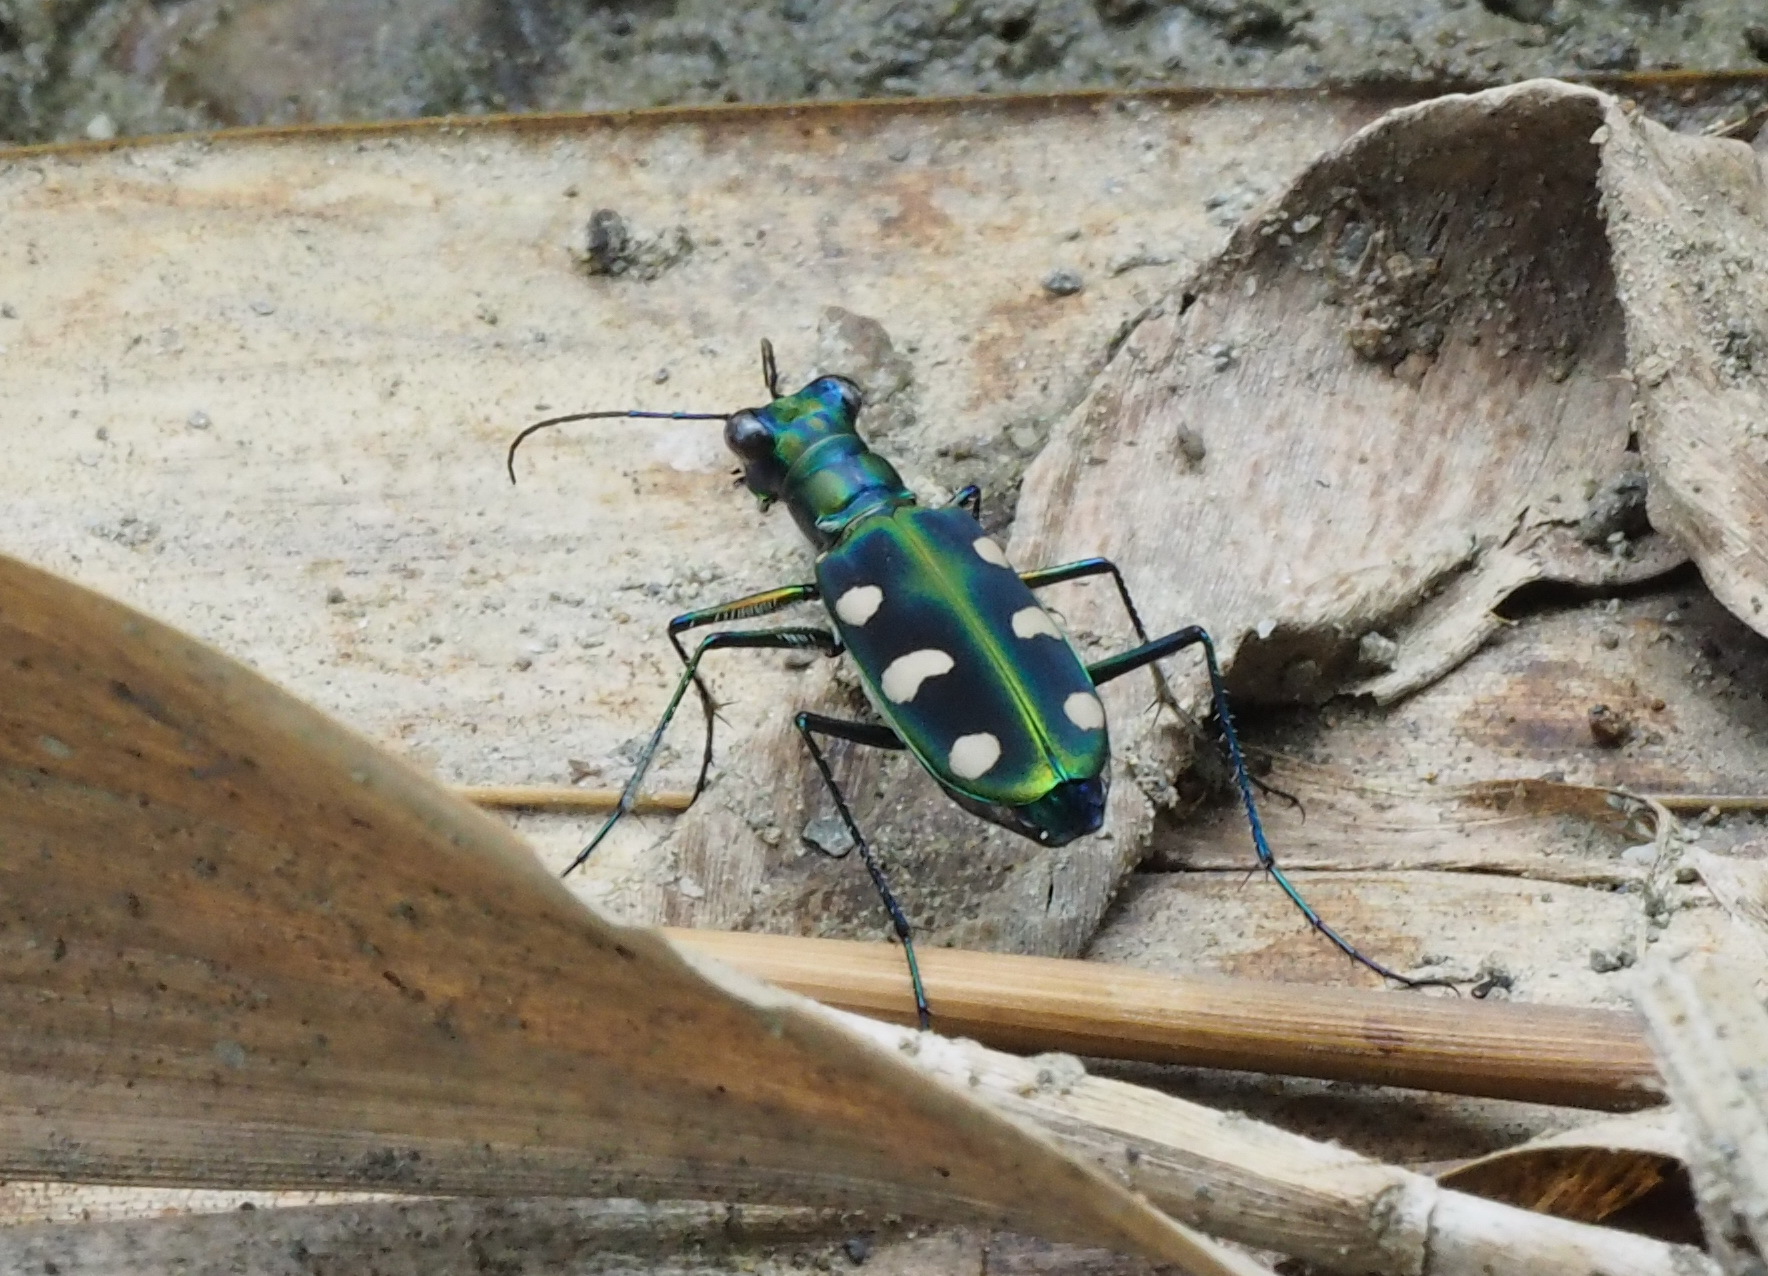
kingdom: Animalia
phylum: Arthropoda
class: Insecta
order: Coleoptera
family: Carabidae
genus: Cicindela
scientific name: Cicindela batesi
